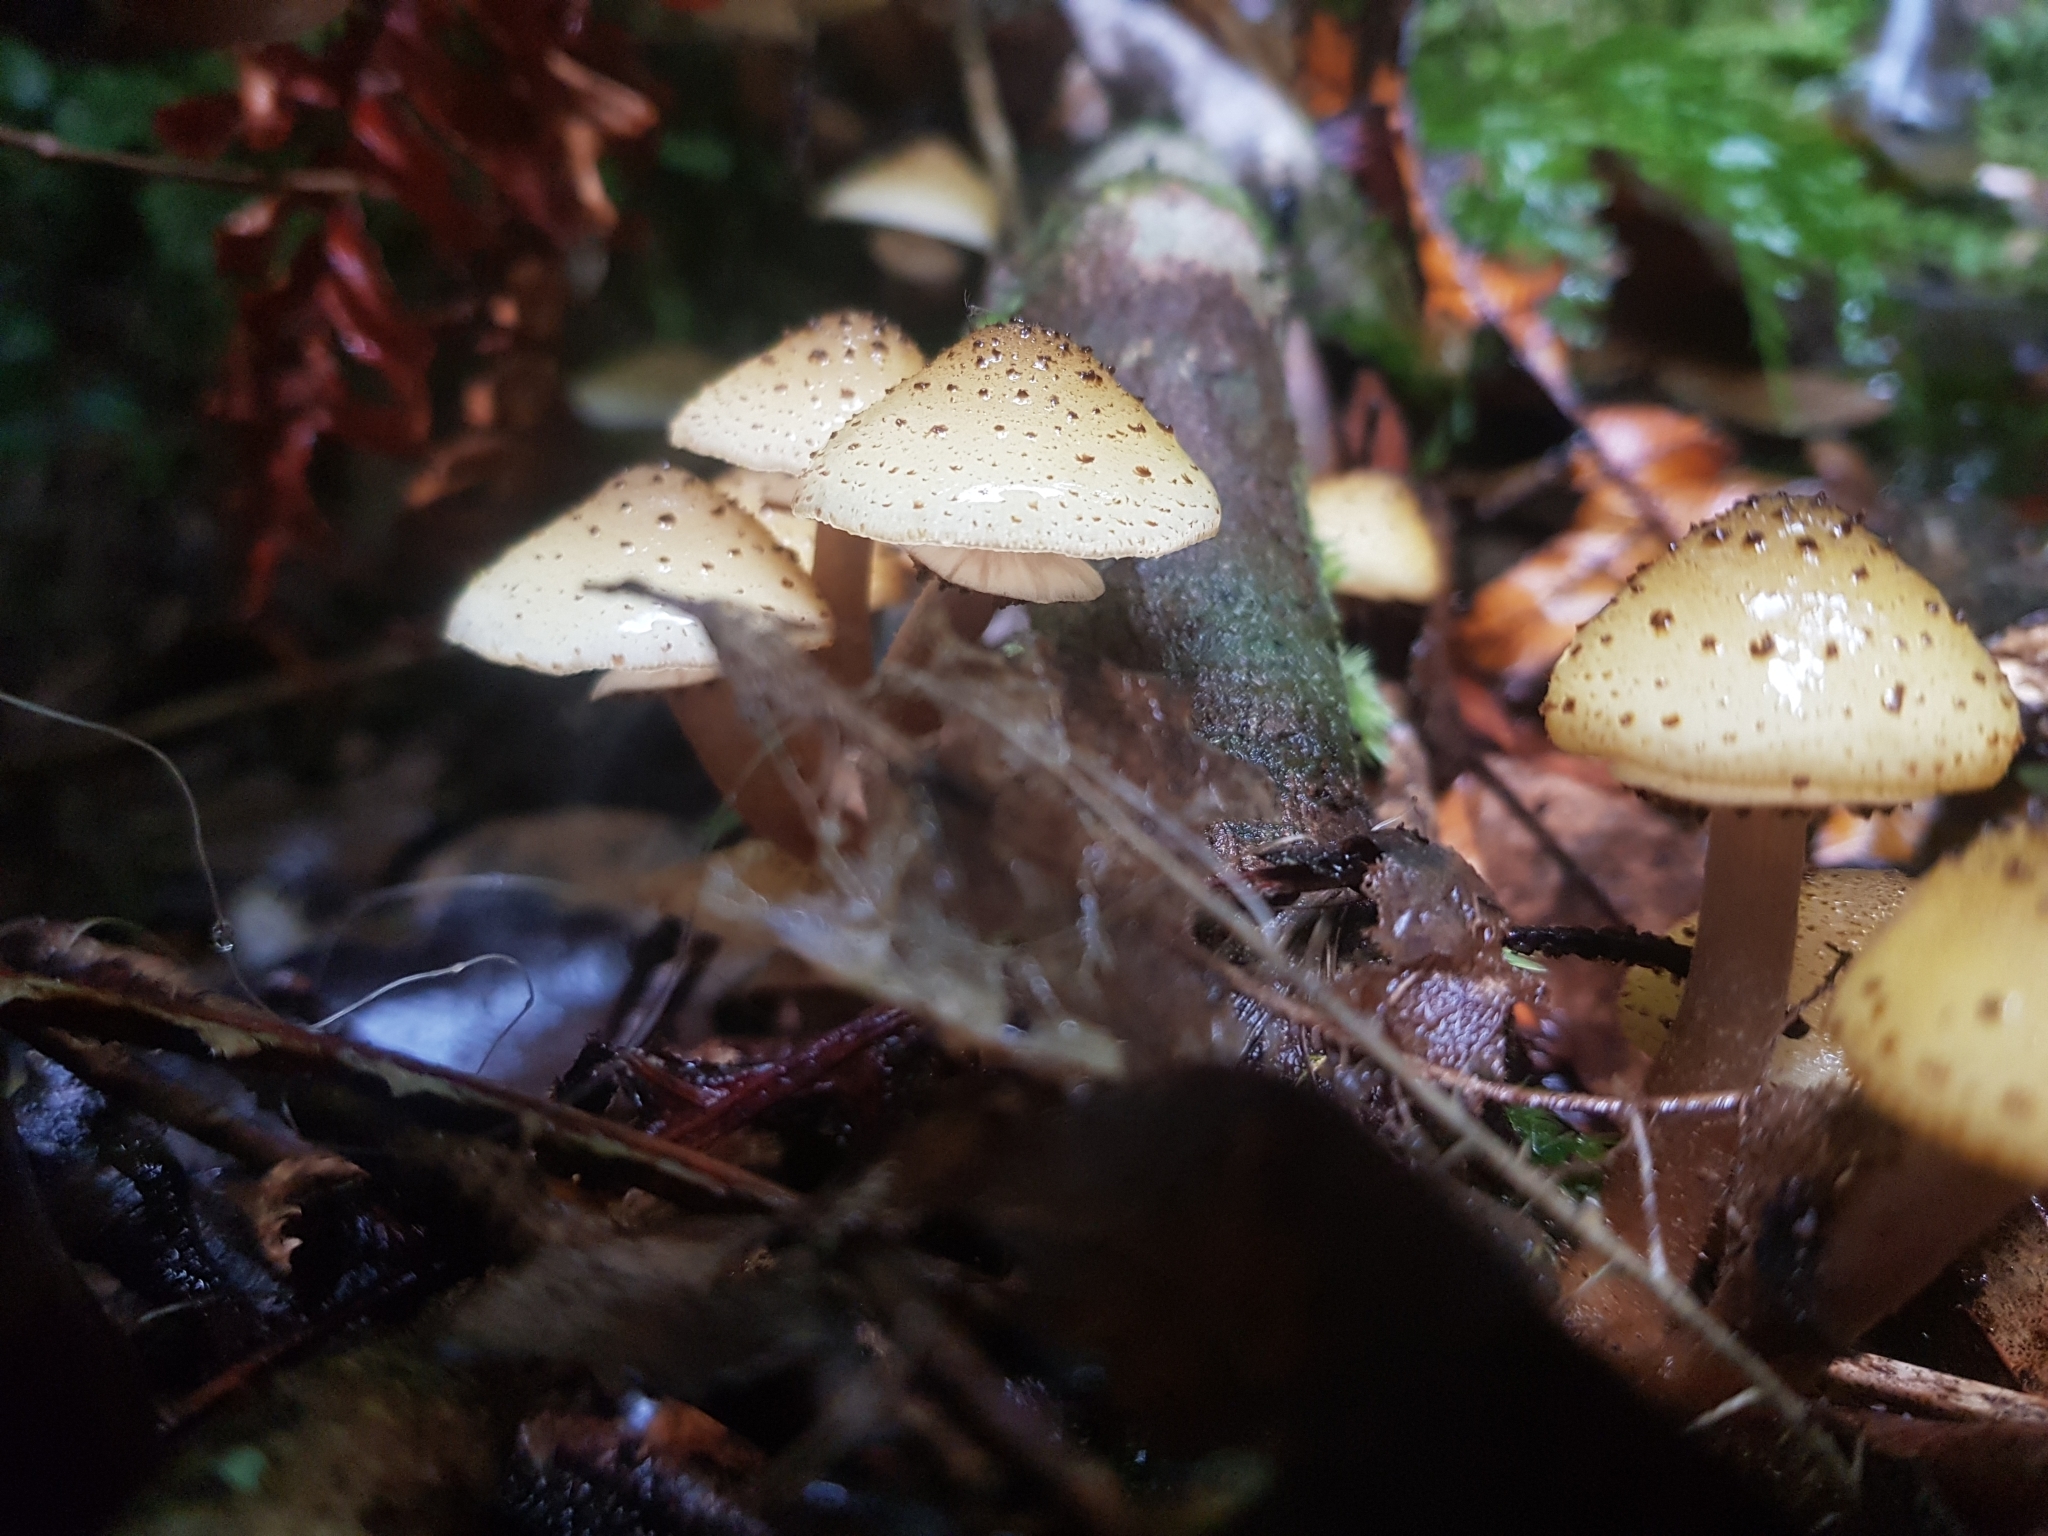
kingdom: Fungi
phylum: Basidiomycota
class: Agaricomycetes
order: Agaricales
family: Physalacriaceae
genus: Armillaria
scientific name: Armillaria limonea
